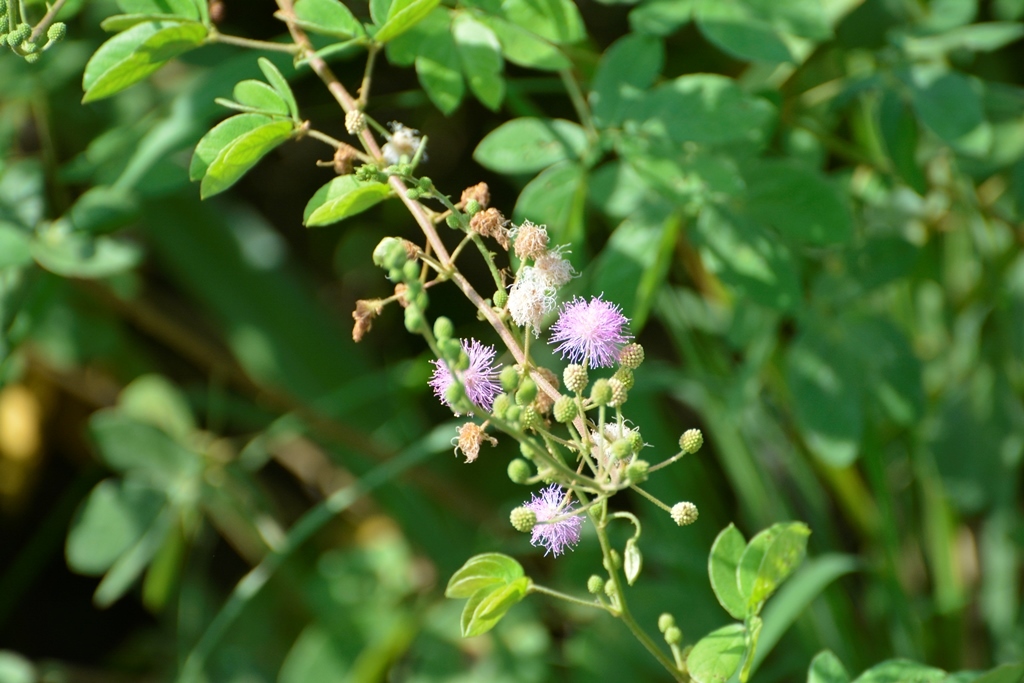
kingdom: Plantae
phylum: Tracheophyta
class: Magnoliopsida
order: Fabales
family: Fabaceae
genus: Mimosa
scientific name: Mimosa albida
